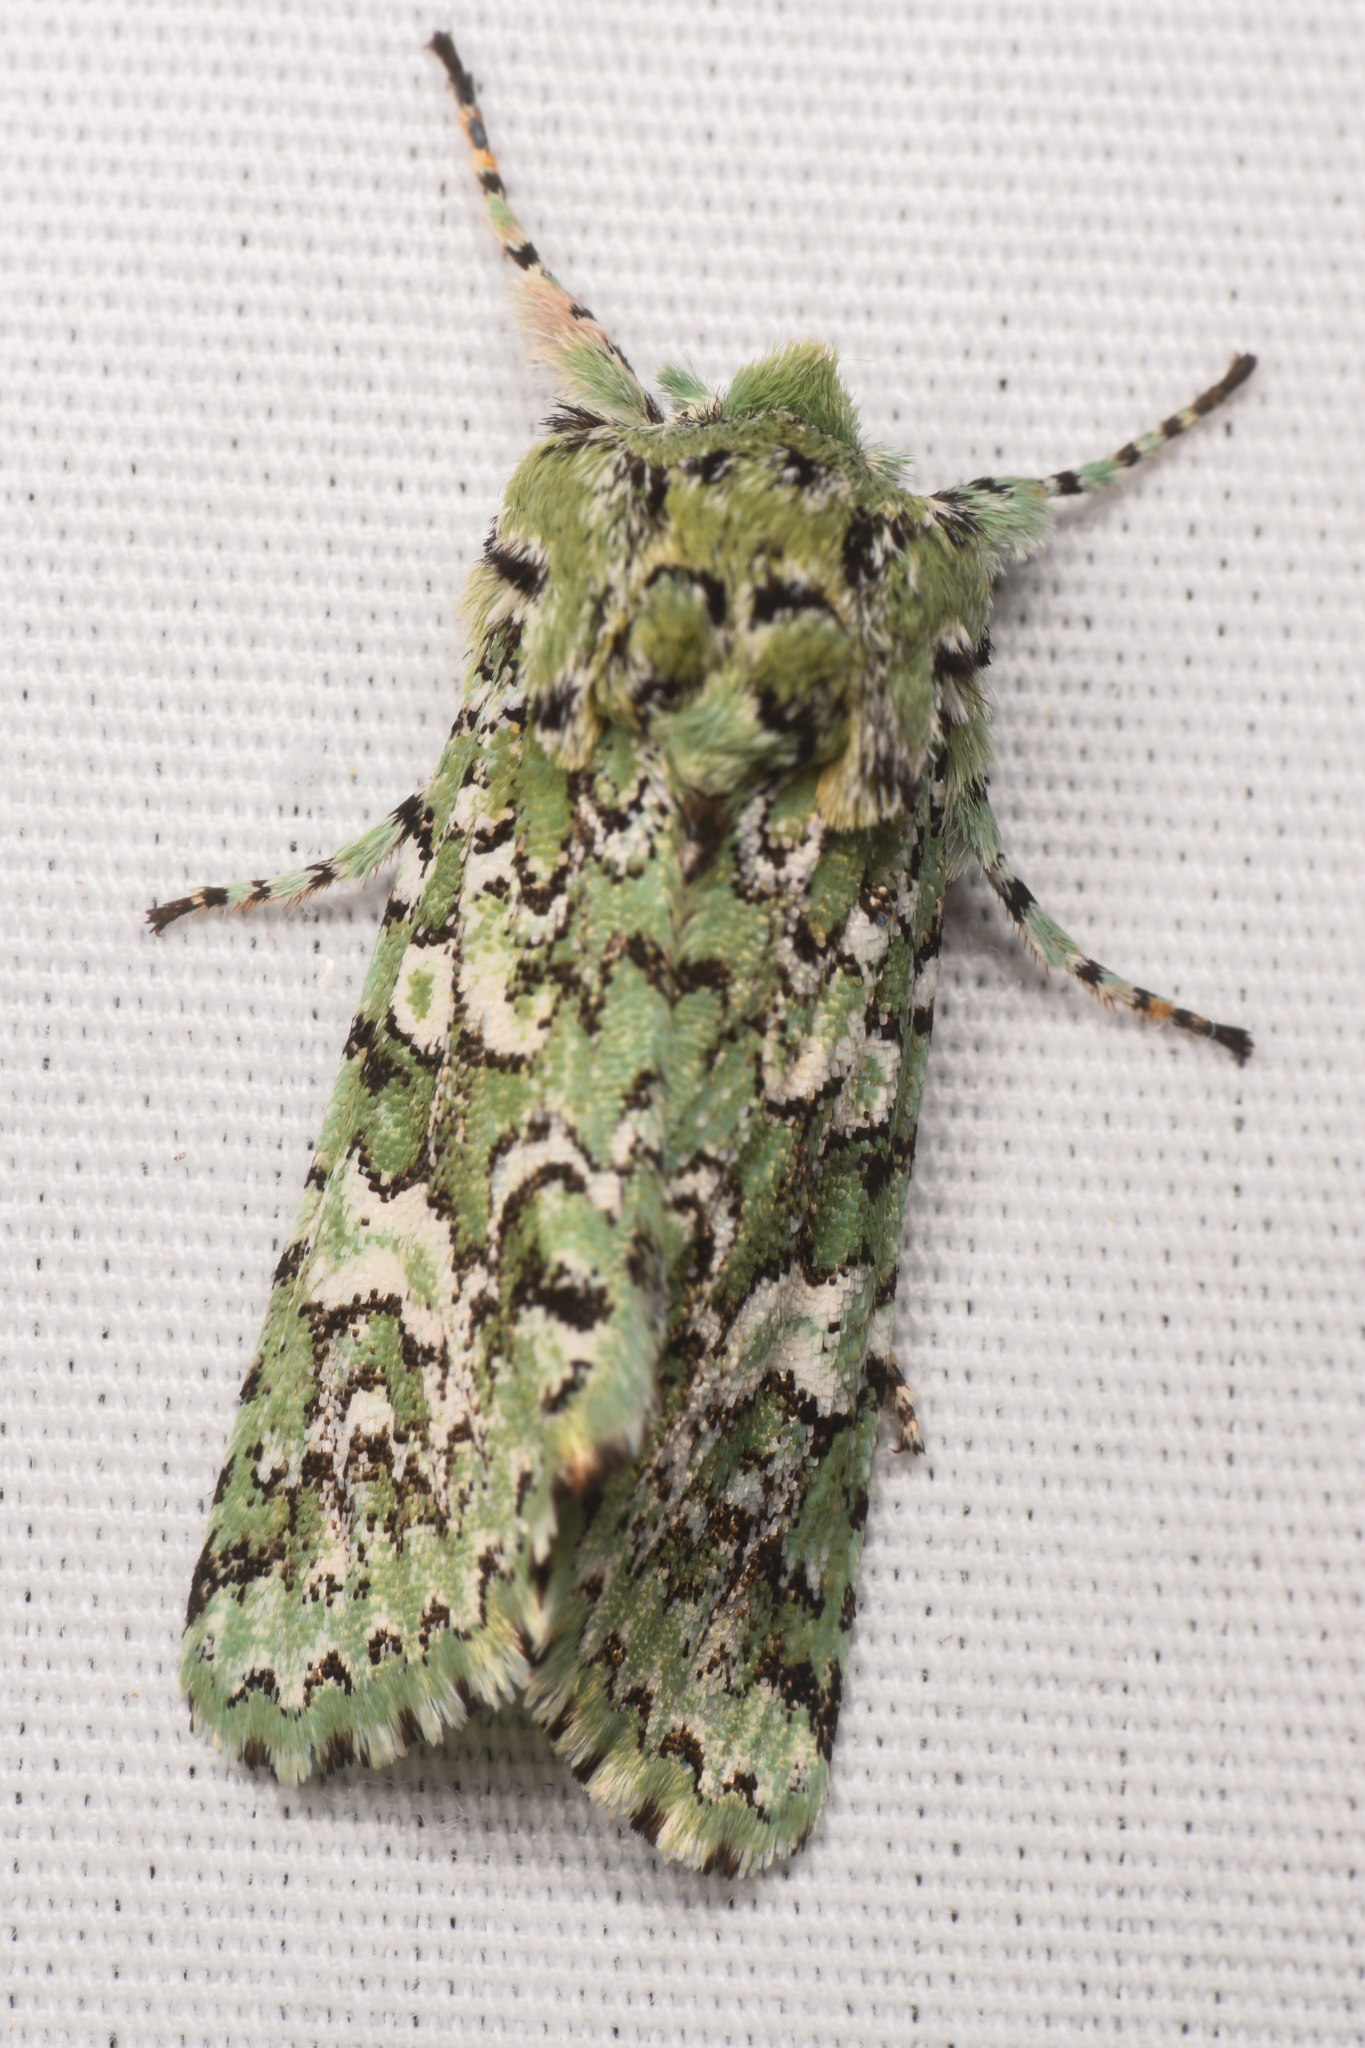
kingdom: Animalia
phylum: Arthropoda
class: Insecta
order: Lepidoptera
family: Noctuidae
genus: Feralia
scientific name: Feralia februalis
